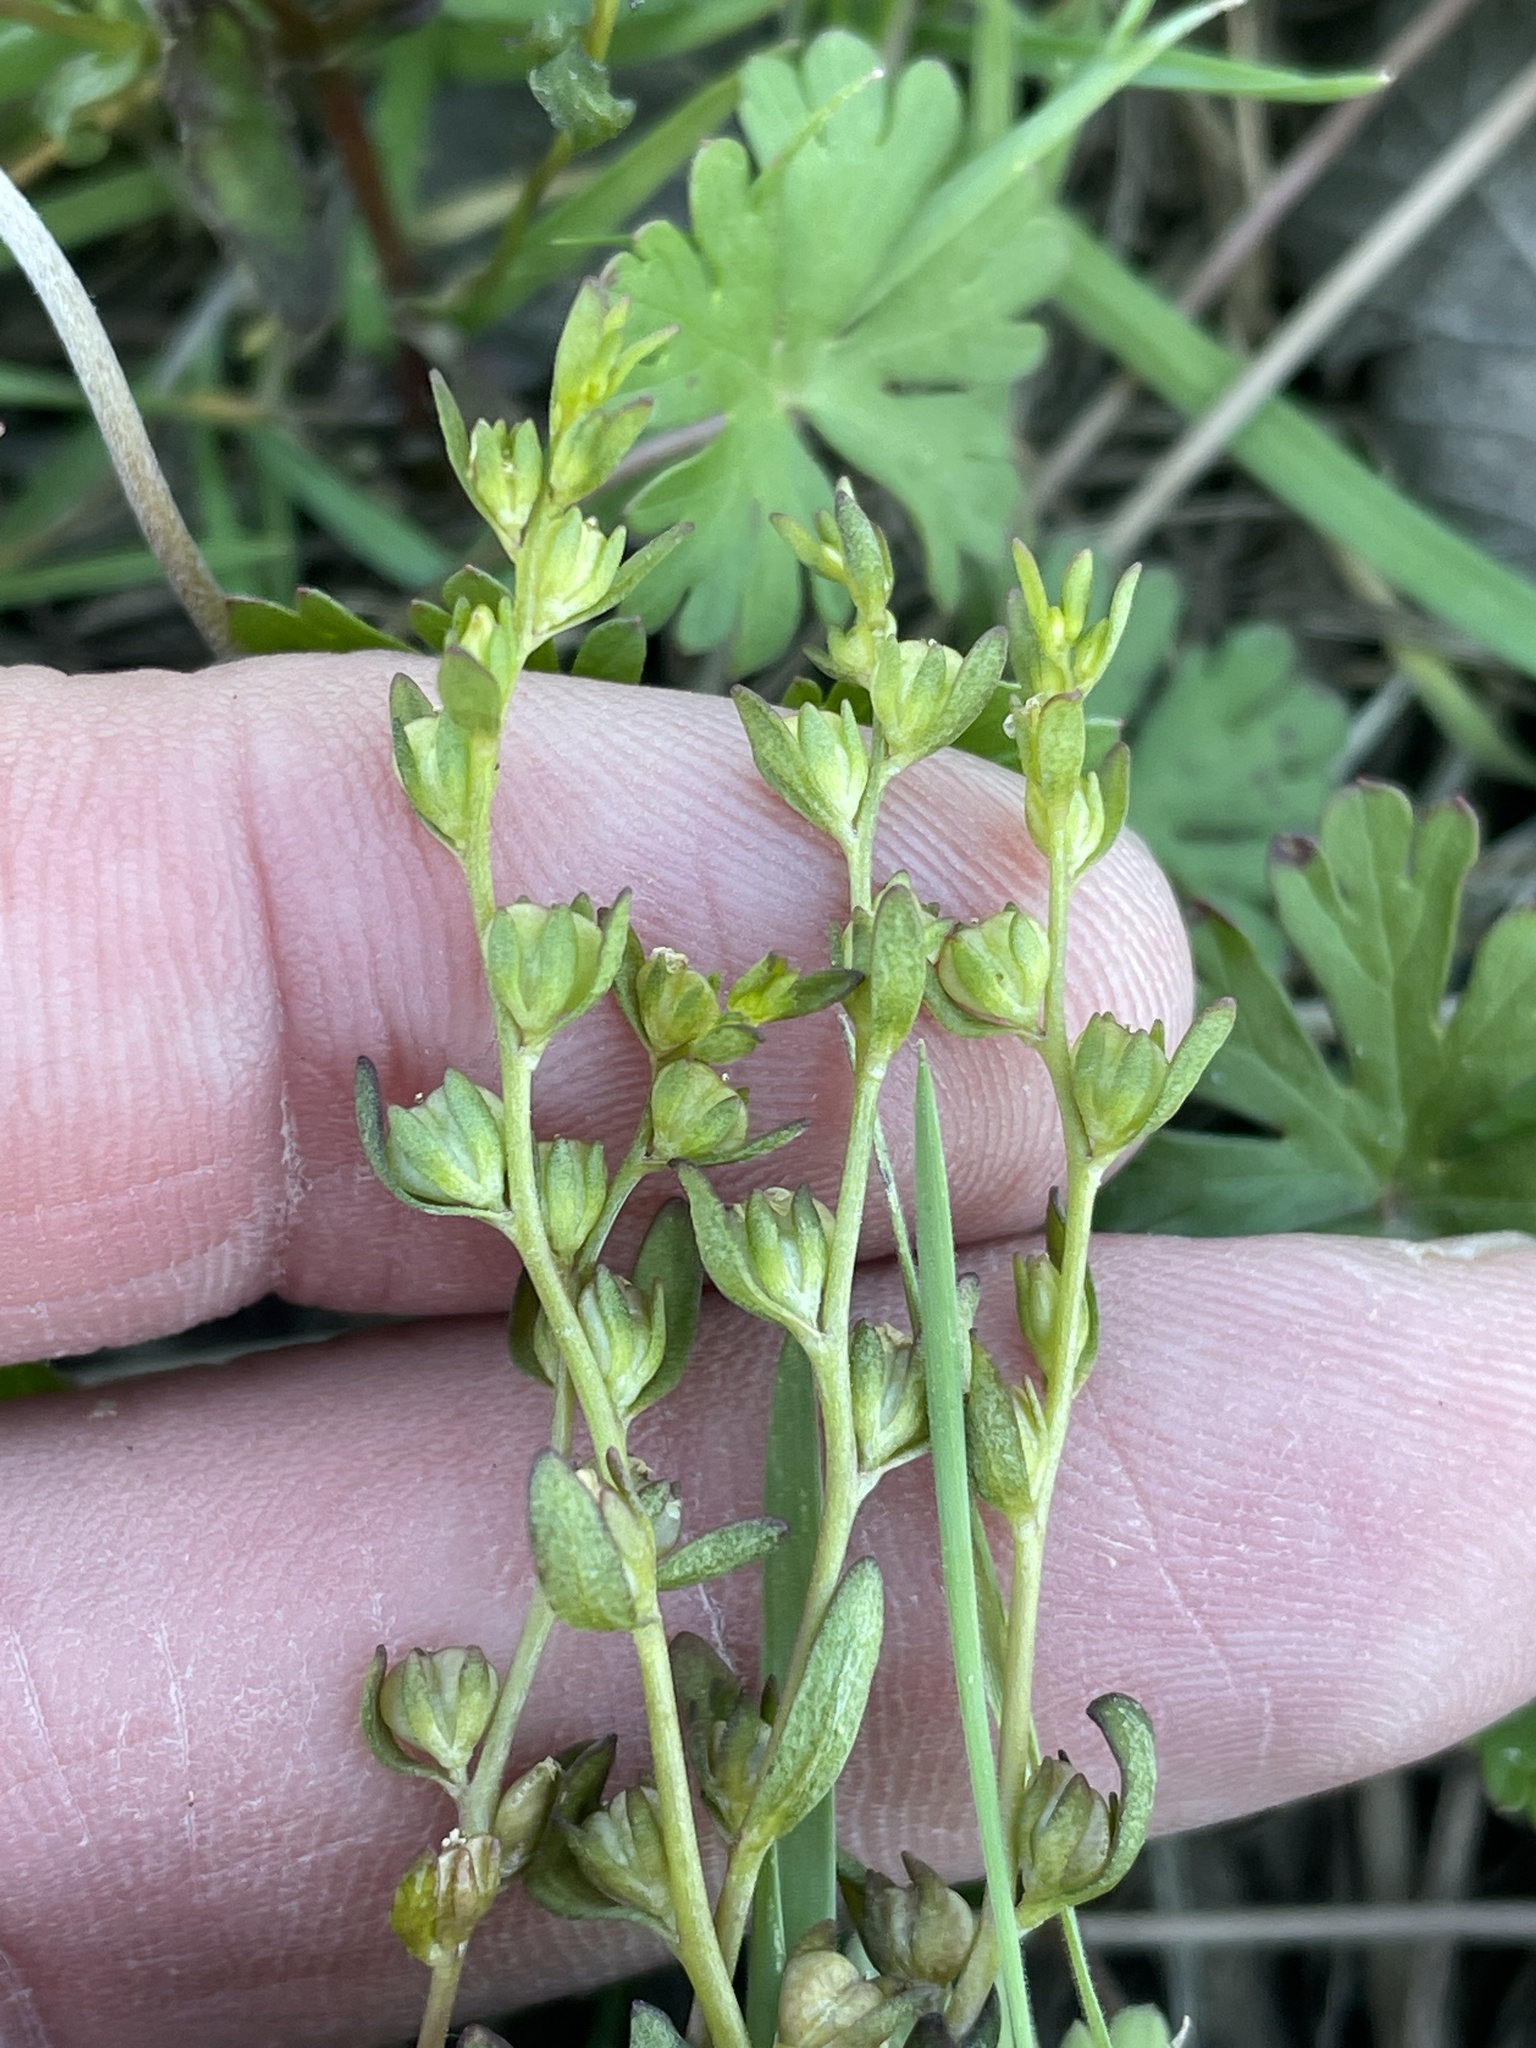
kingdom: Plantae
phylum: Tracheophyta
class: Magnoliopsida
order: Lamiales
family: Plantaginaceae
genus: Veronica
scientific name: Veronica peregrina
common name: Neckweed
